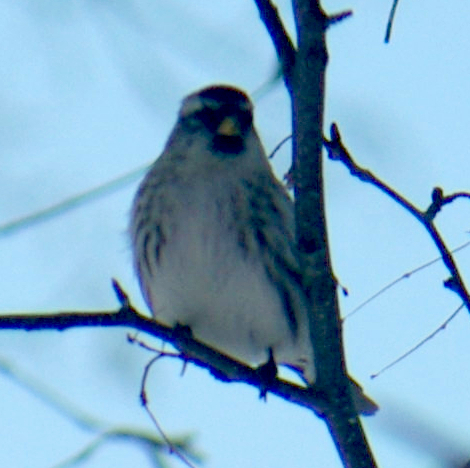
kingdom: Animalia
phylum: Chordata
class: Aves
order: Passeriformes
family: Fringillidae
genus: Acanthis
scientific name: Acanthis flammea
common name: Common redpoll
